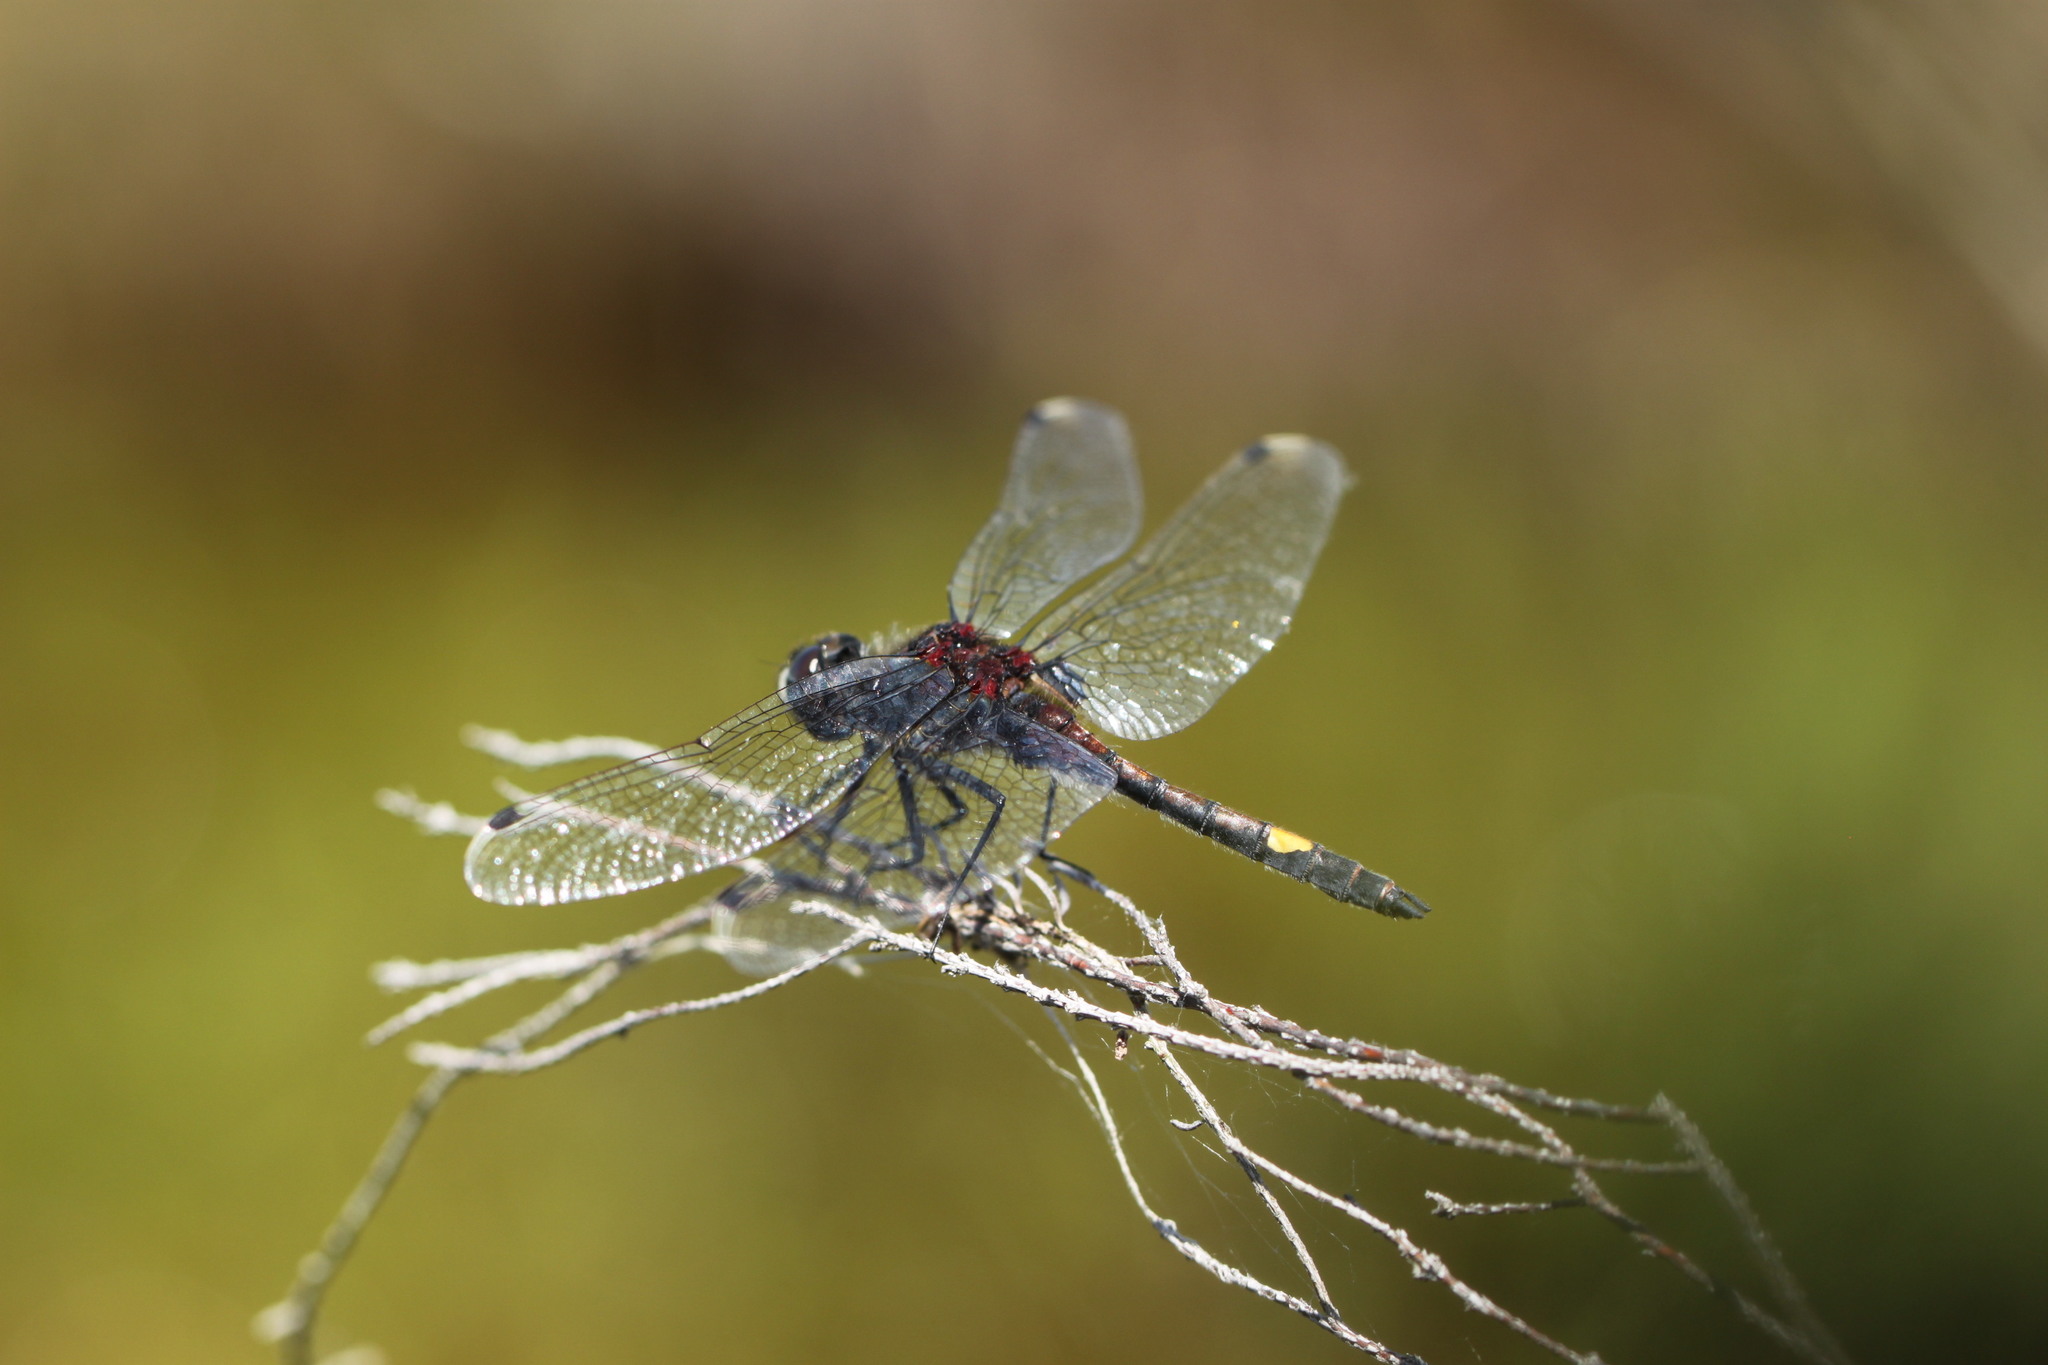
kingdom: Animalia
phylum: Arthropoda
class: Insecta
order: Odonata
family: Libellulidae
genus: Leucorrhinia
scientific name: Leucorrhinia pectoralis
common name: Yellow-spotted whiteface
